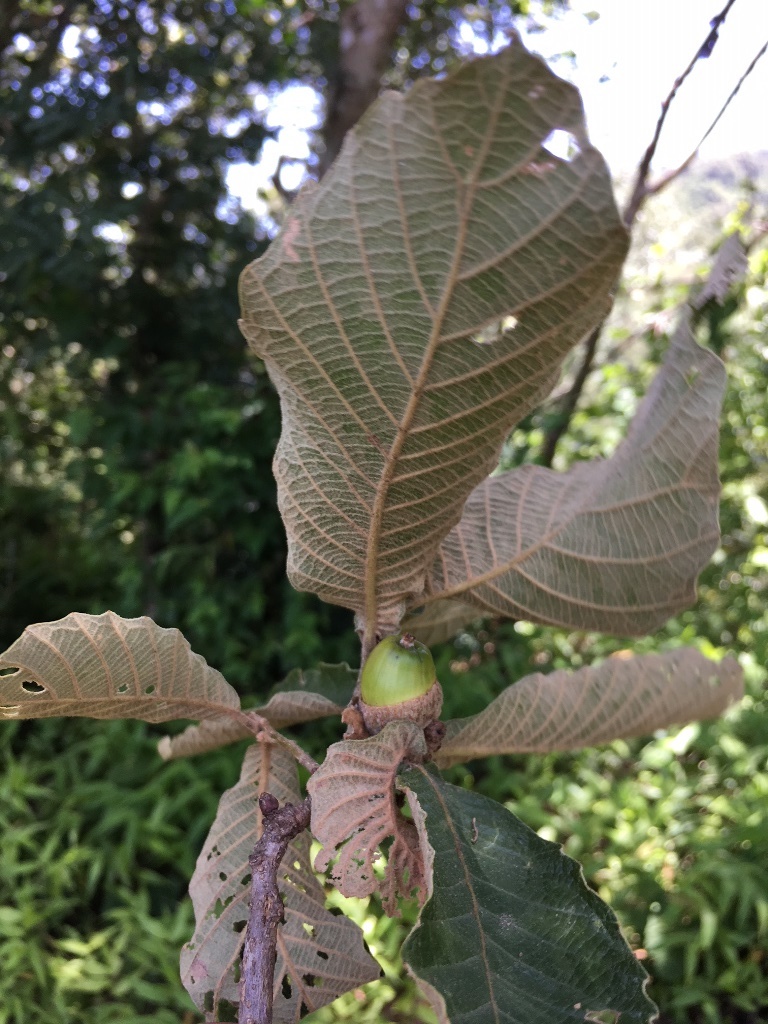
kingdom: Plantae
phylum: Tracheophyta
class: Magnoliopsida
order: Fagales
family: Fagaceae
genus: Quercus
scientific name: Quercus segoviensis
